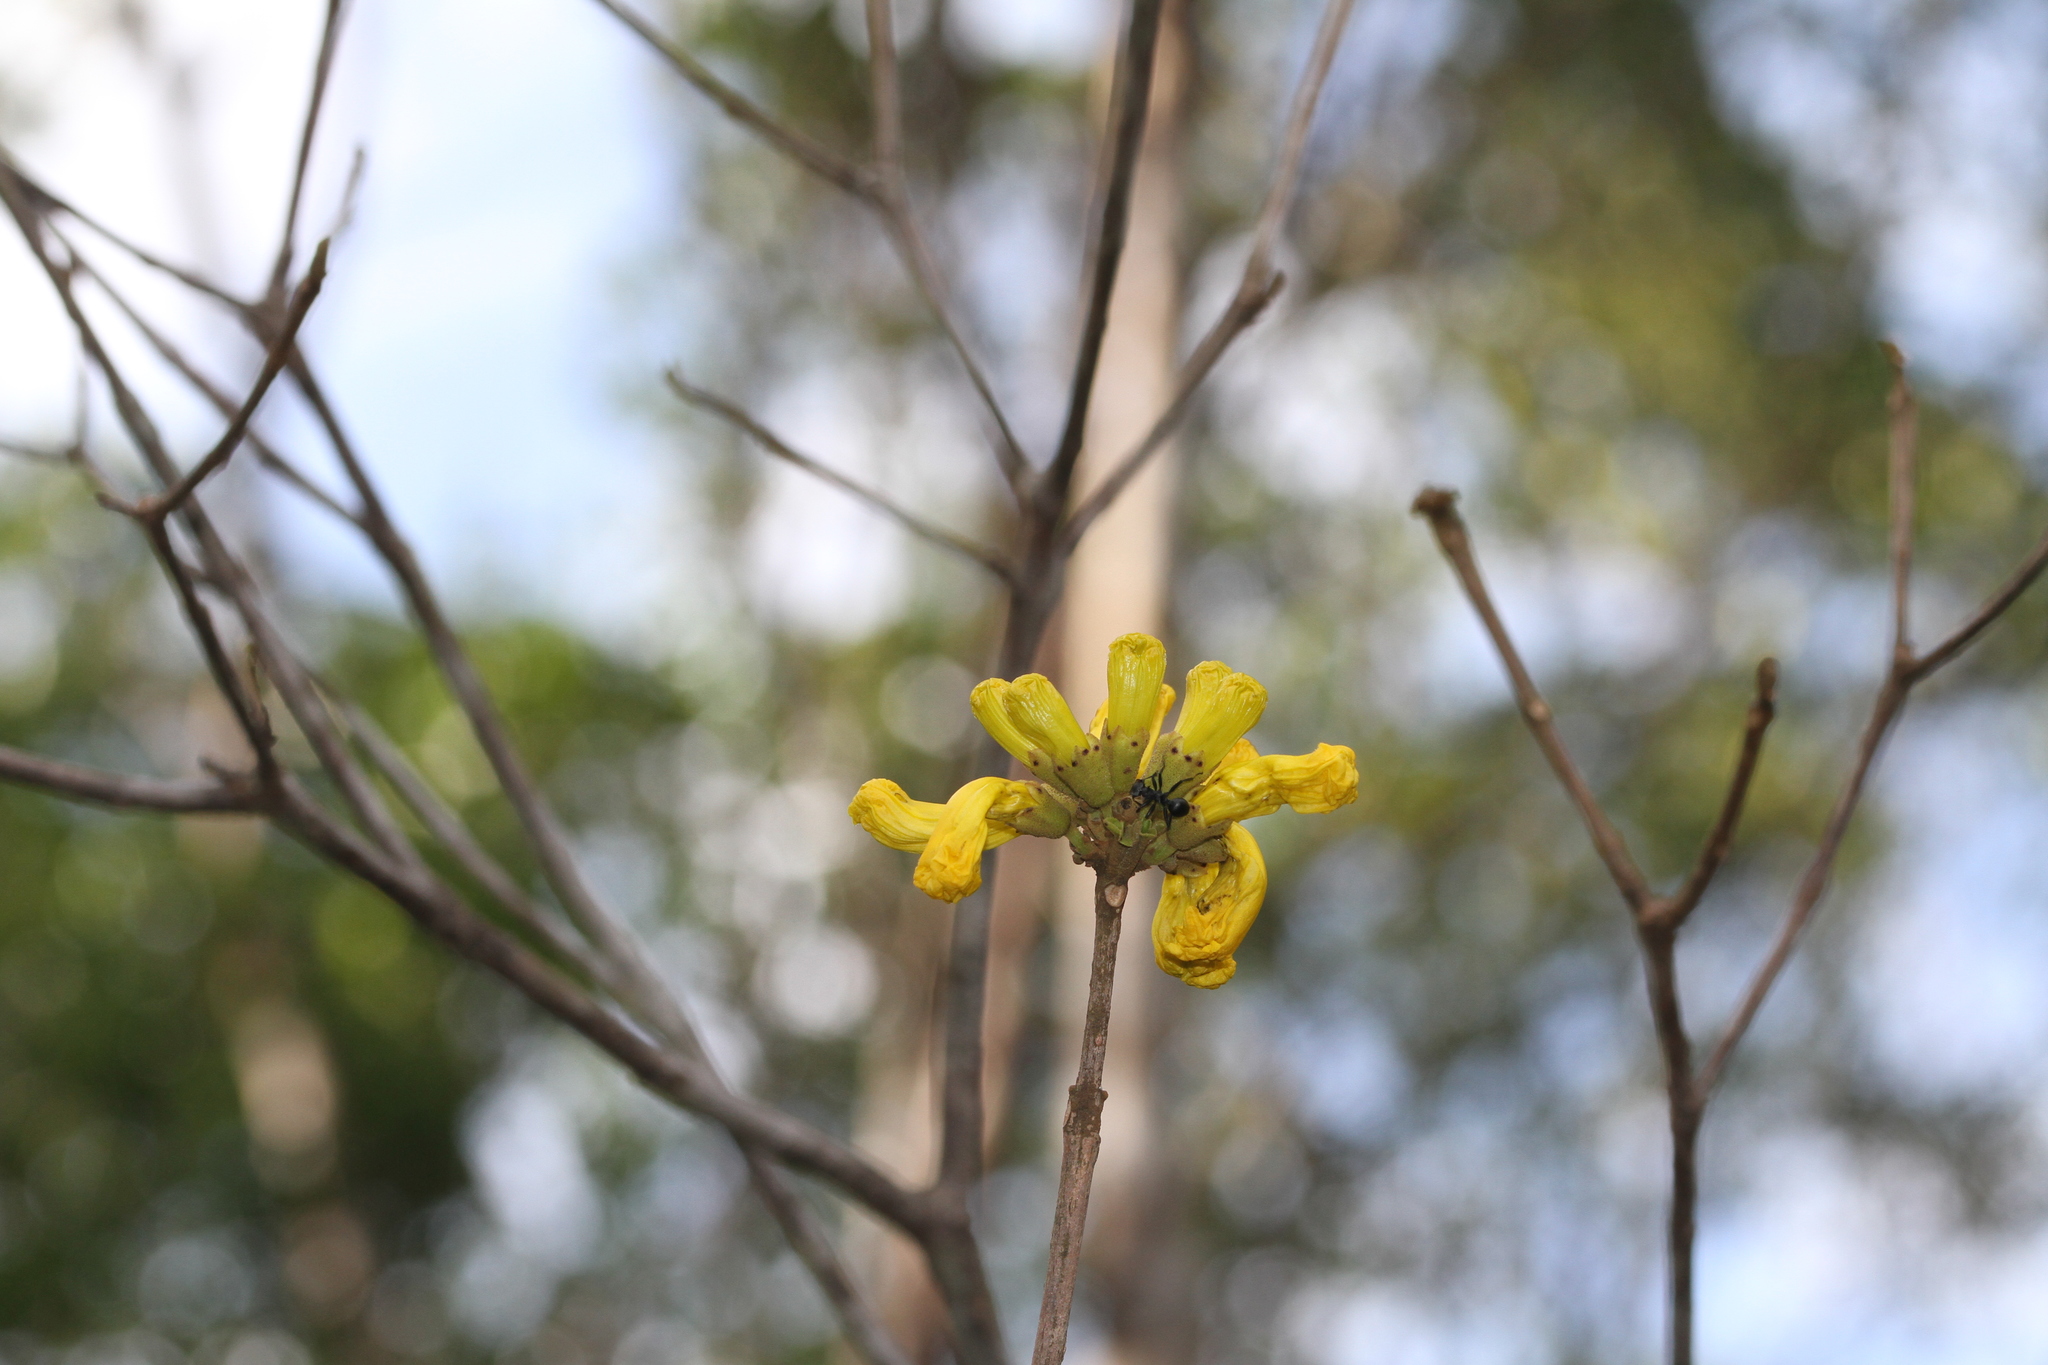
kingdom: Plantae
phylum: Tracheophyta
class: Magnoliopsida
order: Lamiales
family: Bignoniaceae
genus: Handroanthus
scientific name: Handroanthus capitatus
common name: Trumpet trees
